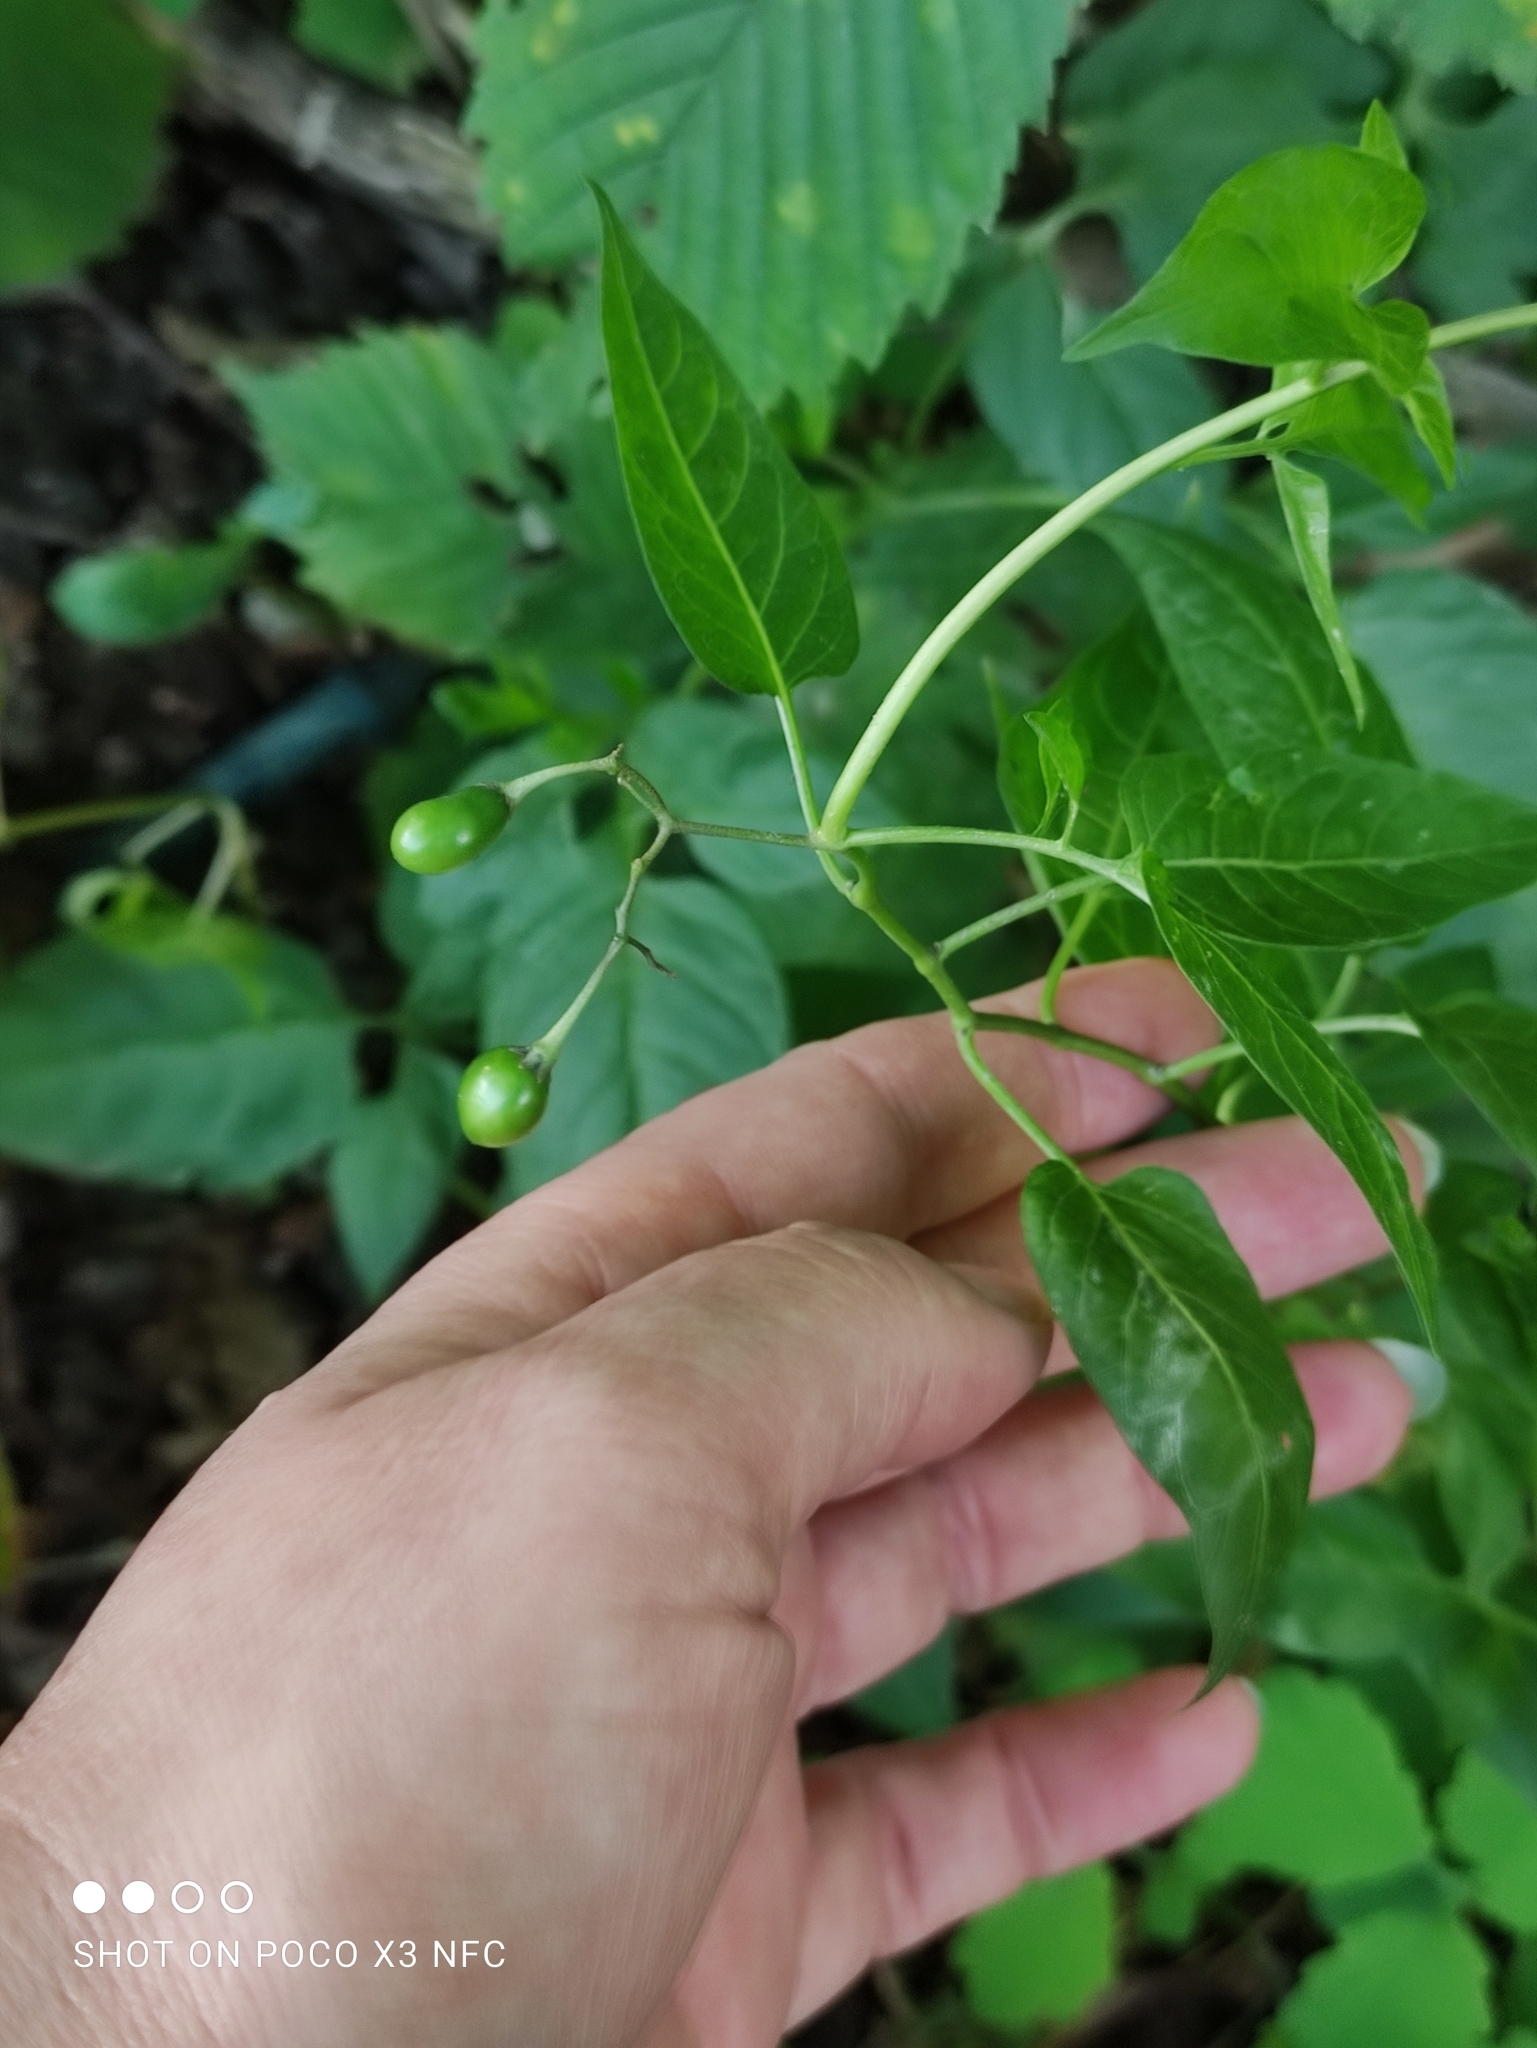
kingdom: Plantae
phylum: Tracheophyta
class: Magnoliopsida
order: Solanales
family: Solanaceae
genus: Solanum
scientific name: Solanum dulcamara
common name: Climbing nightshade
